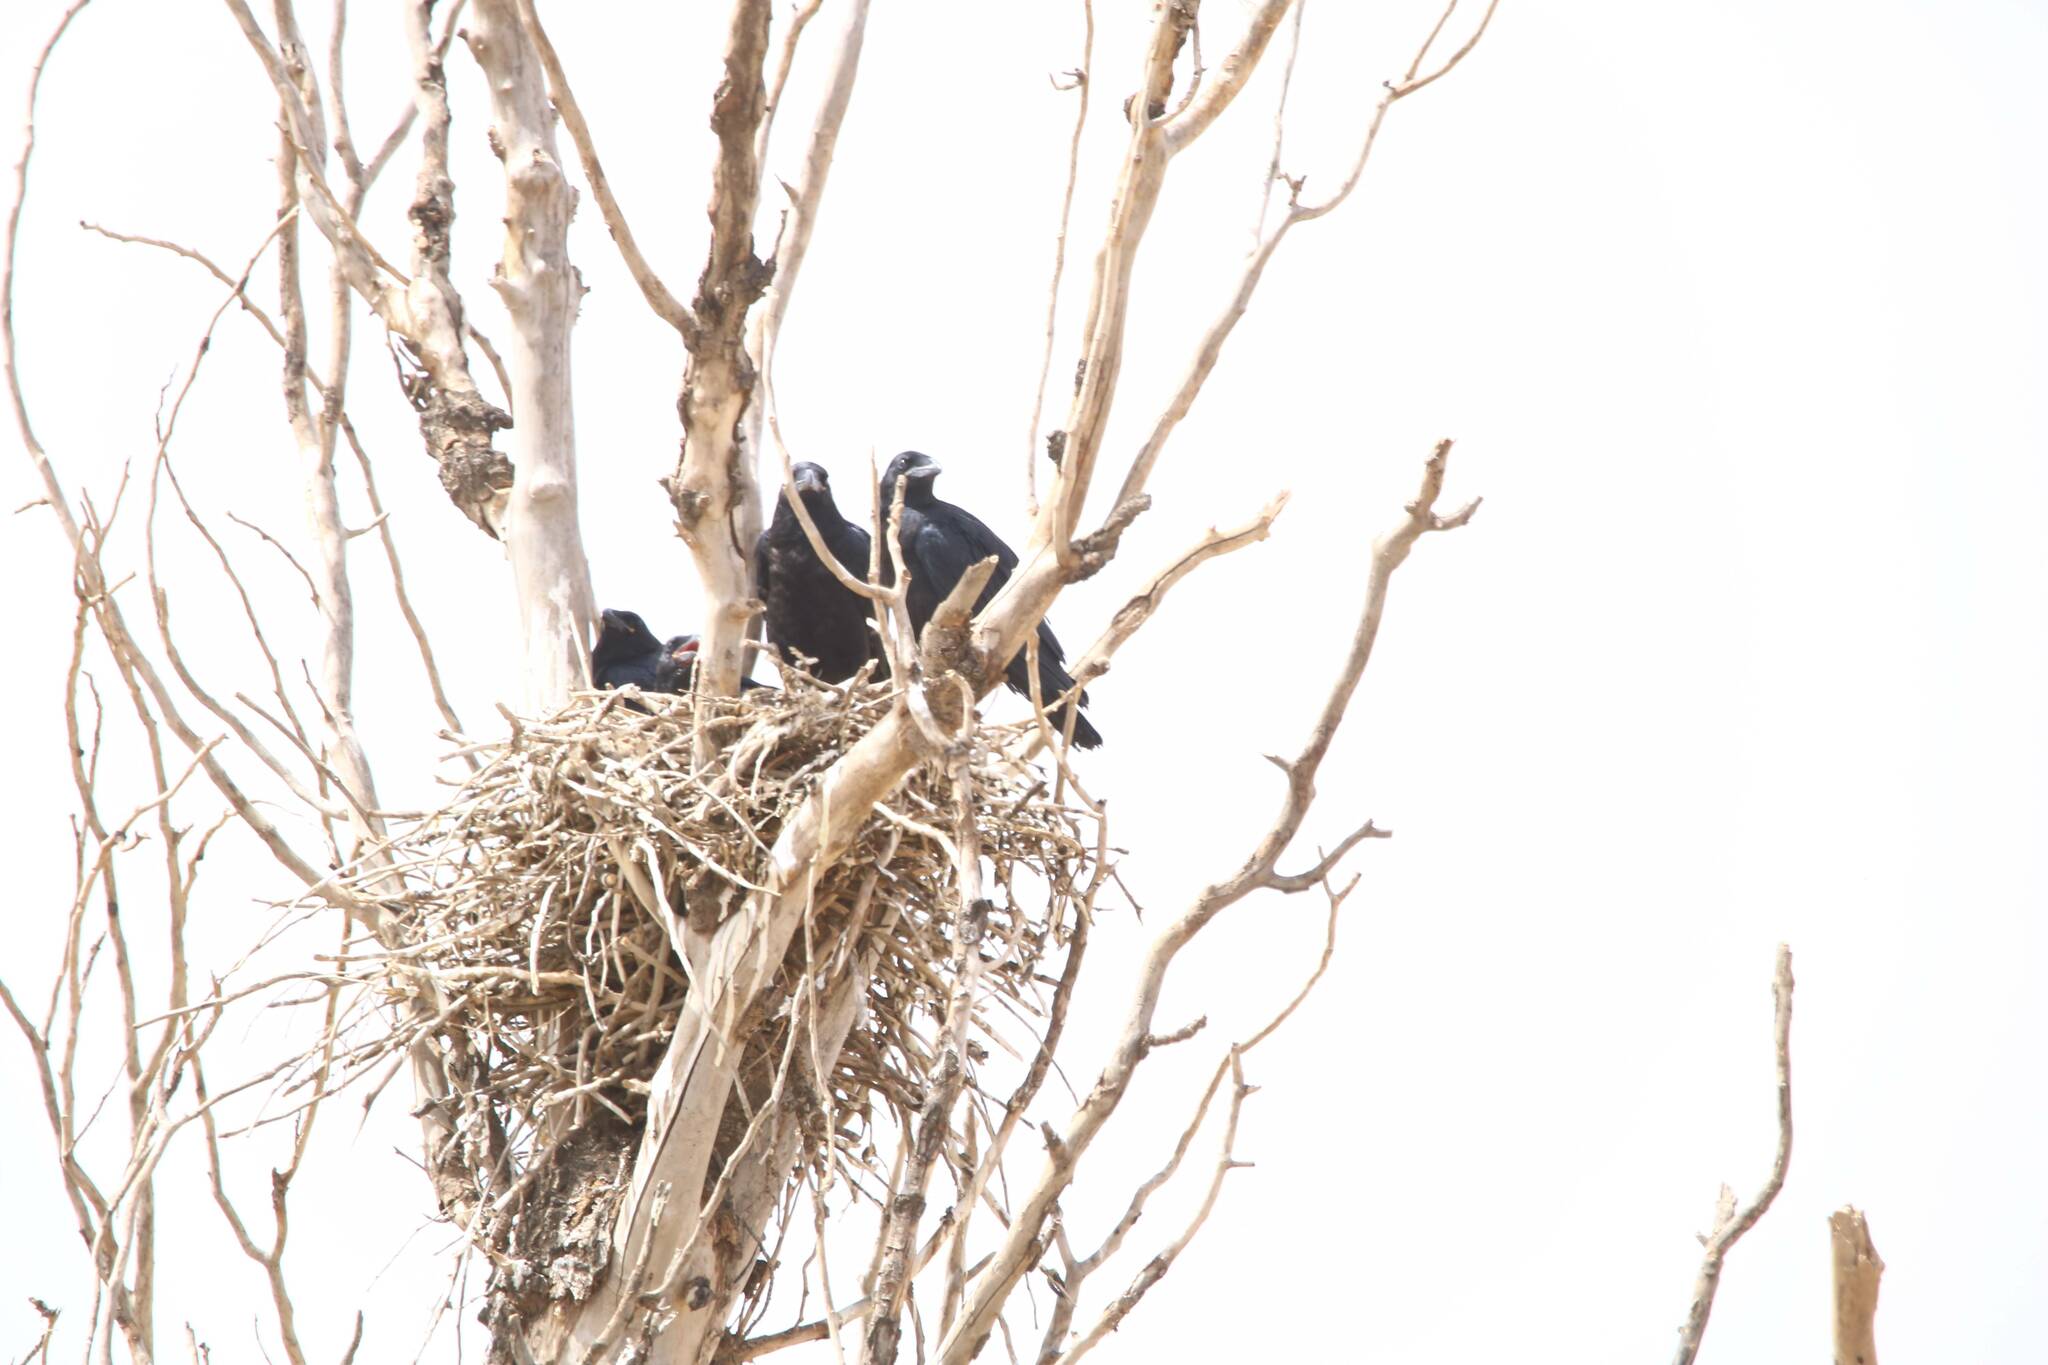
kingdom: Animalia
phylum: Chordata
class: Aves
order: Passeriformes
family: Corvidae
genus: Corvus
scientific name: Corvus corax
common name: Common raven
